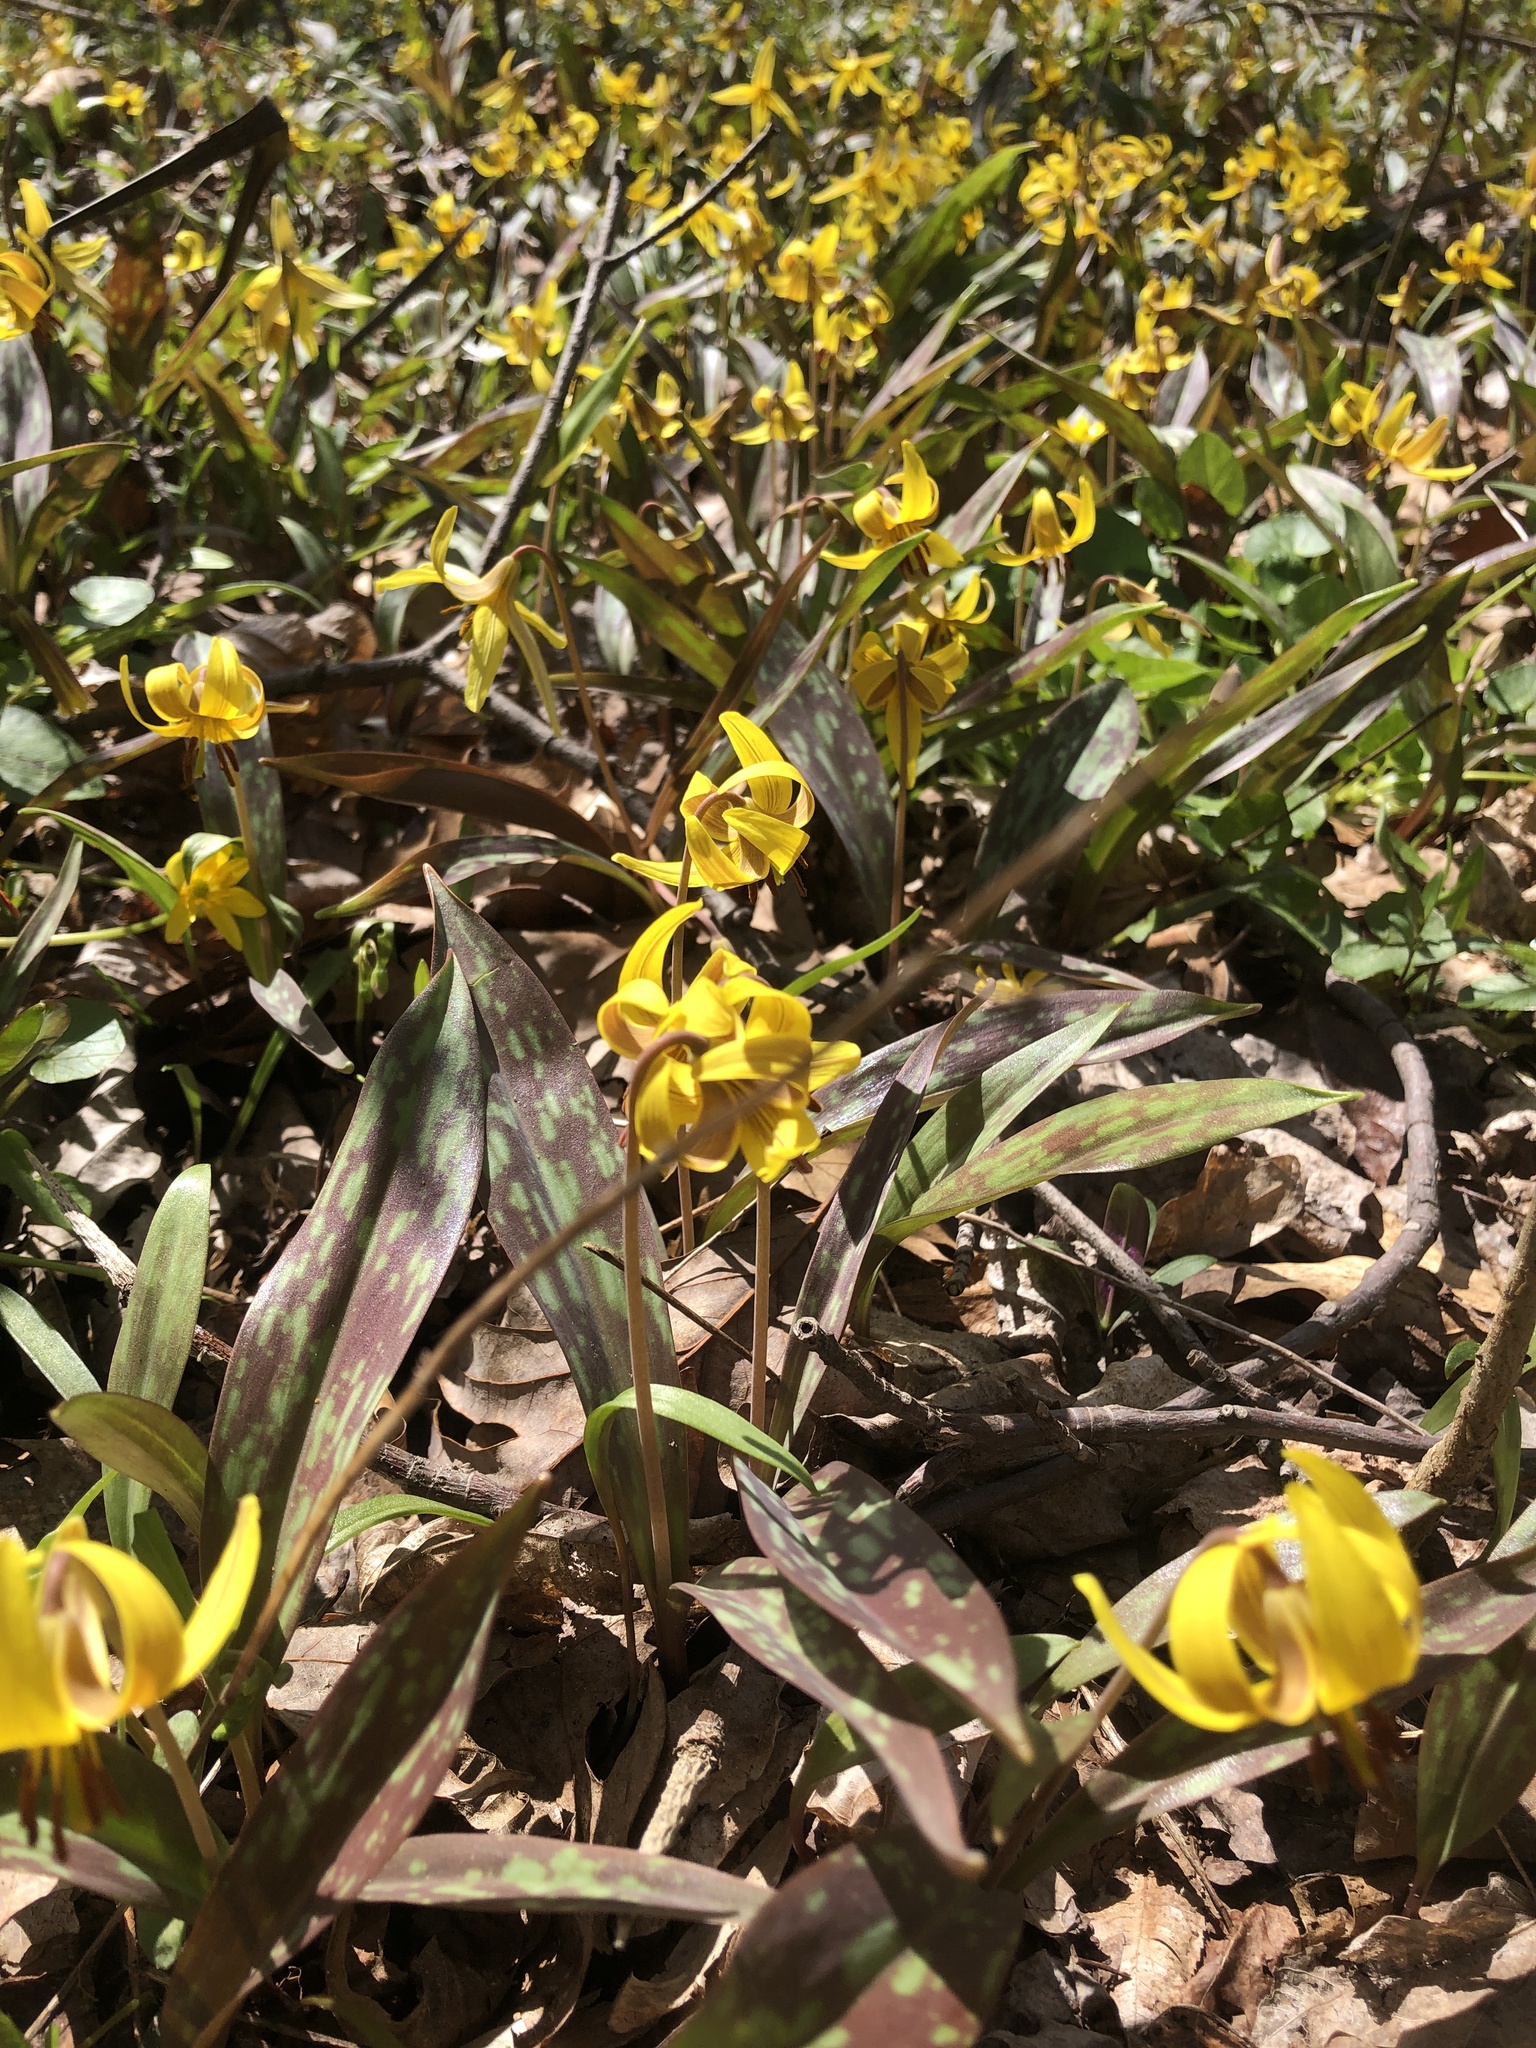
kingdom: Plantae
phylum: Tracheophyta
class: Liliopsida
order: Liliales
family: Liliaceae
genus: Erythronium
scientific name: Erythronium americanum
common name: Yellow adder's-tongue
